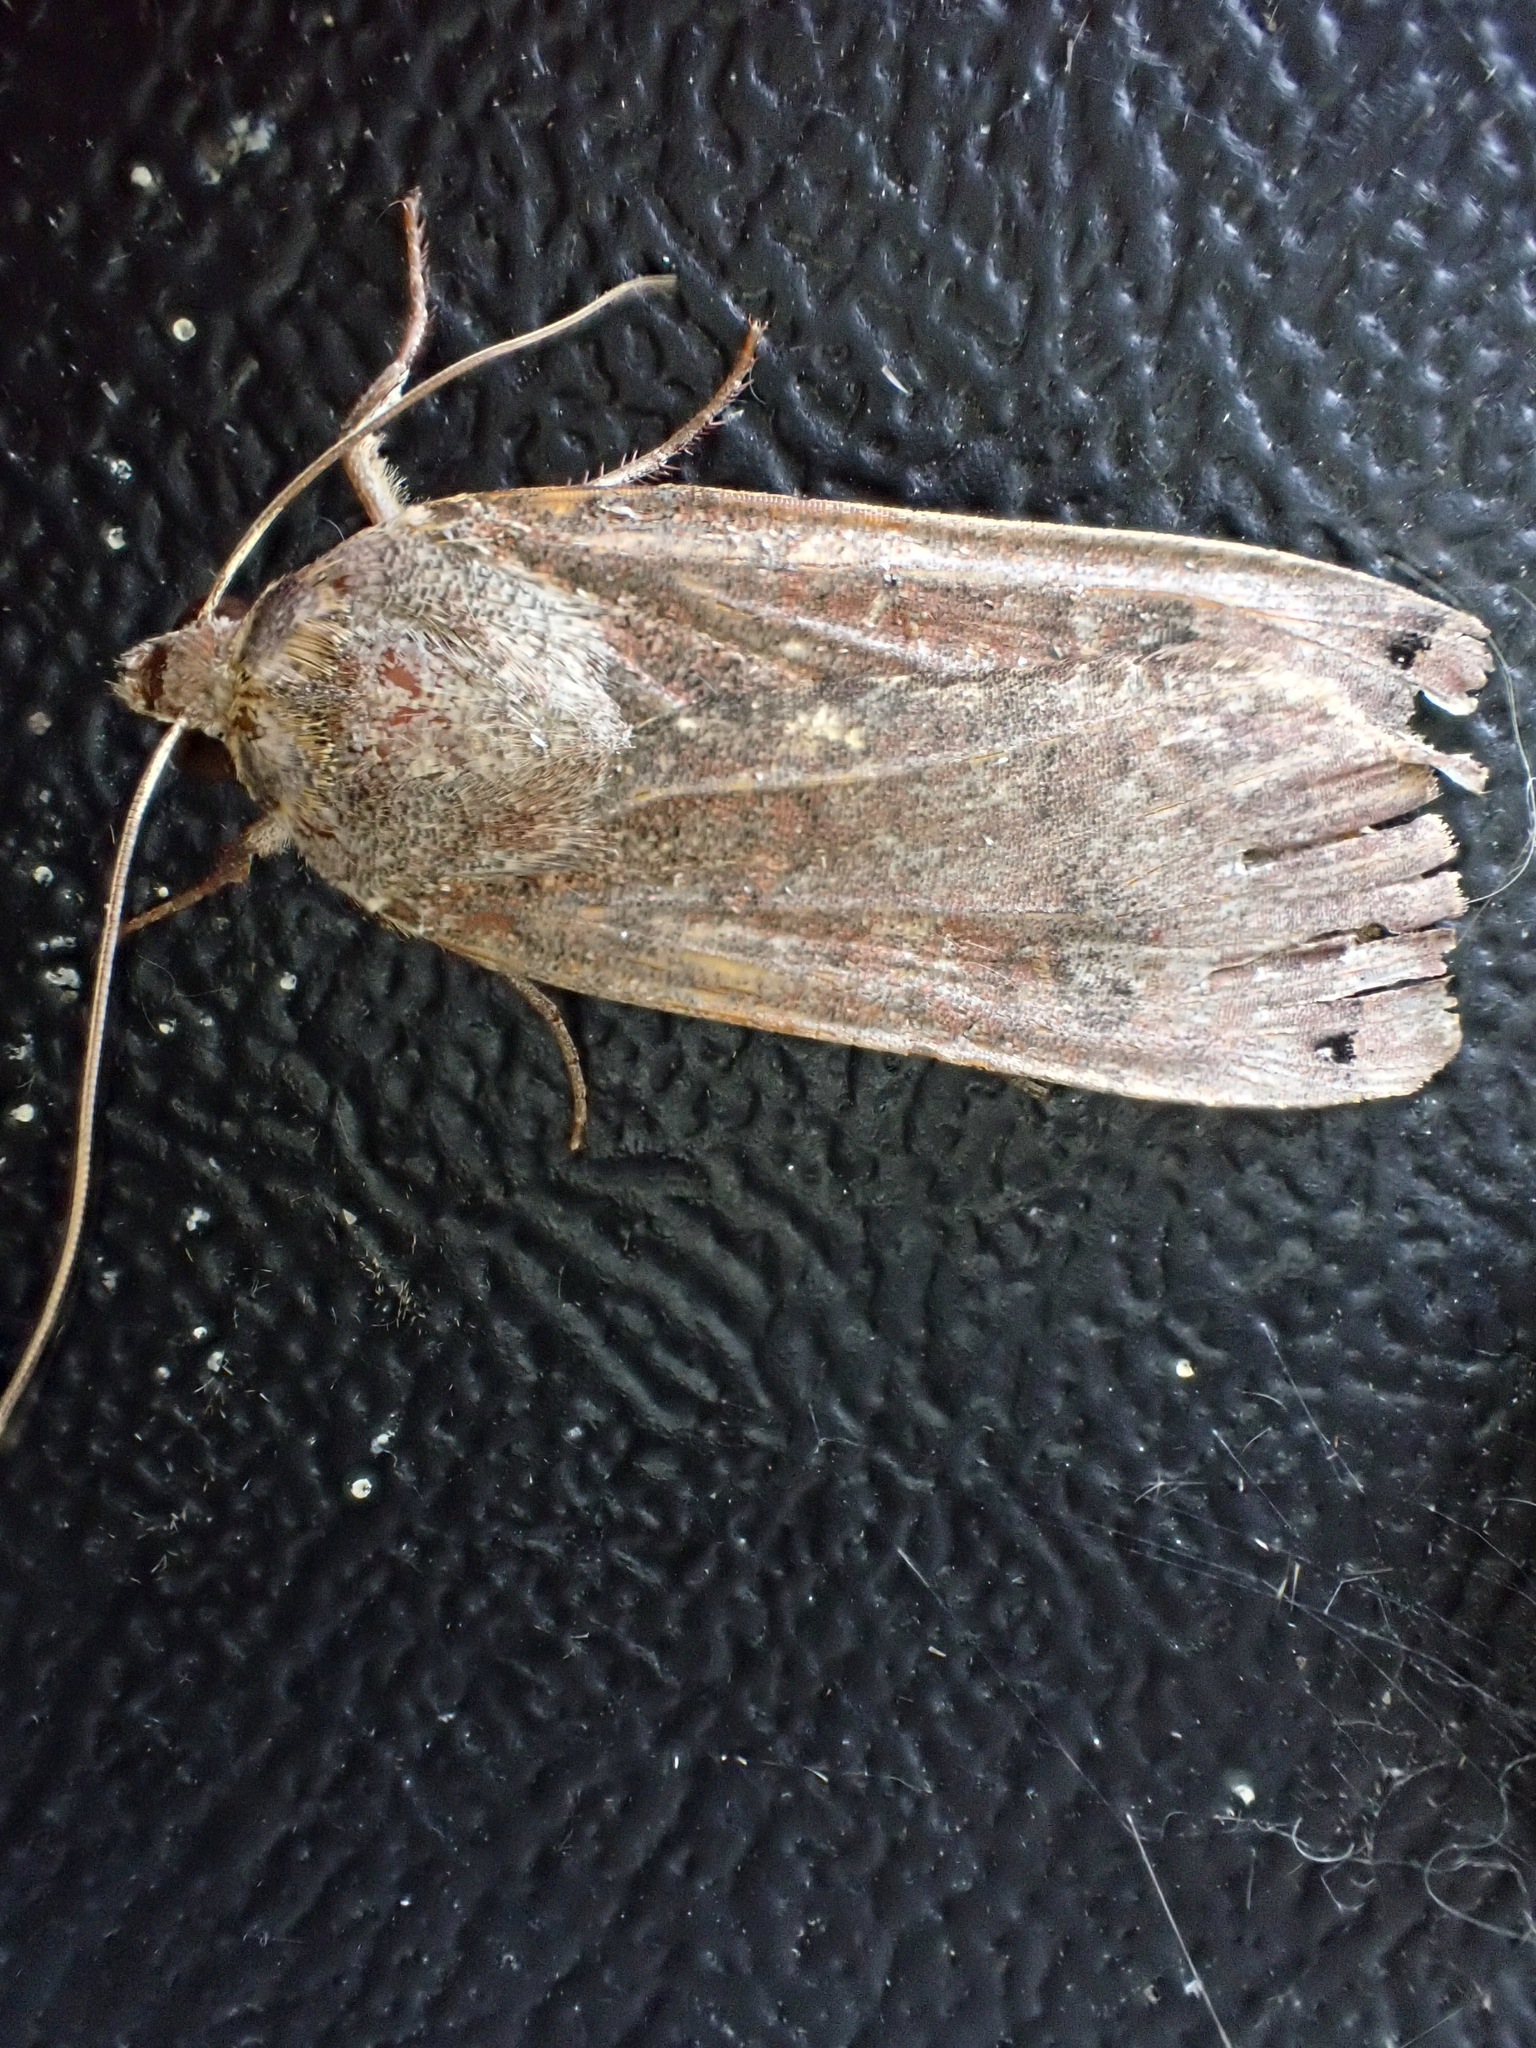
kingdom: Animalia
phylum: Arthropoda
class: Insecta
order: Lepidoptera
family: Noctuidae
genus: Noctua
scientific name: Noctua pronuba
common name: Large yellow underwing
